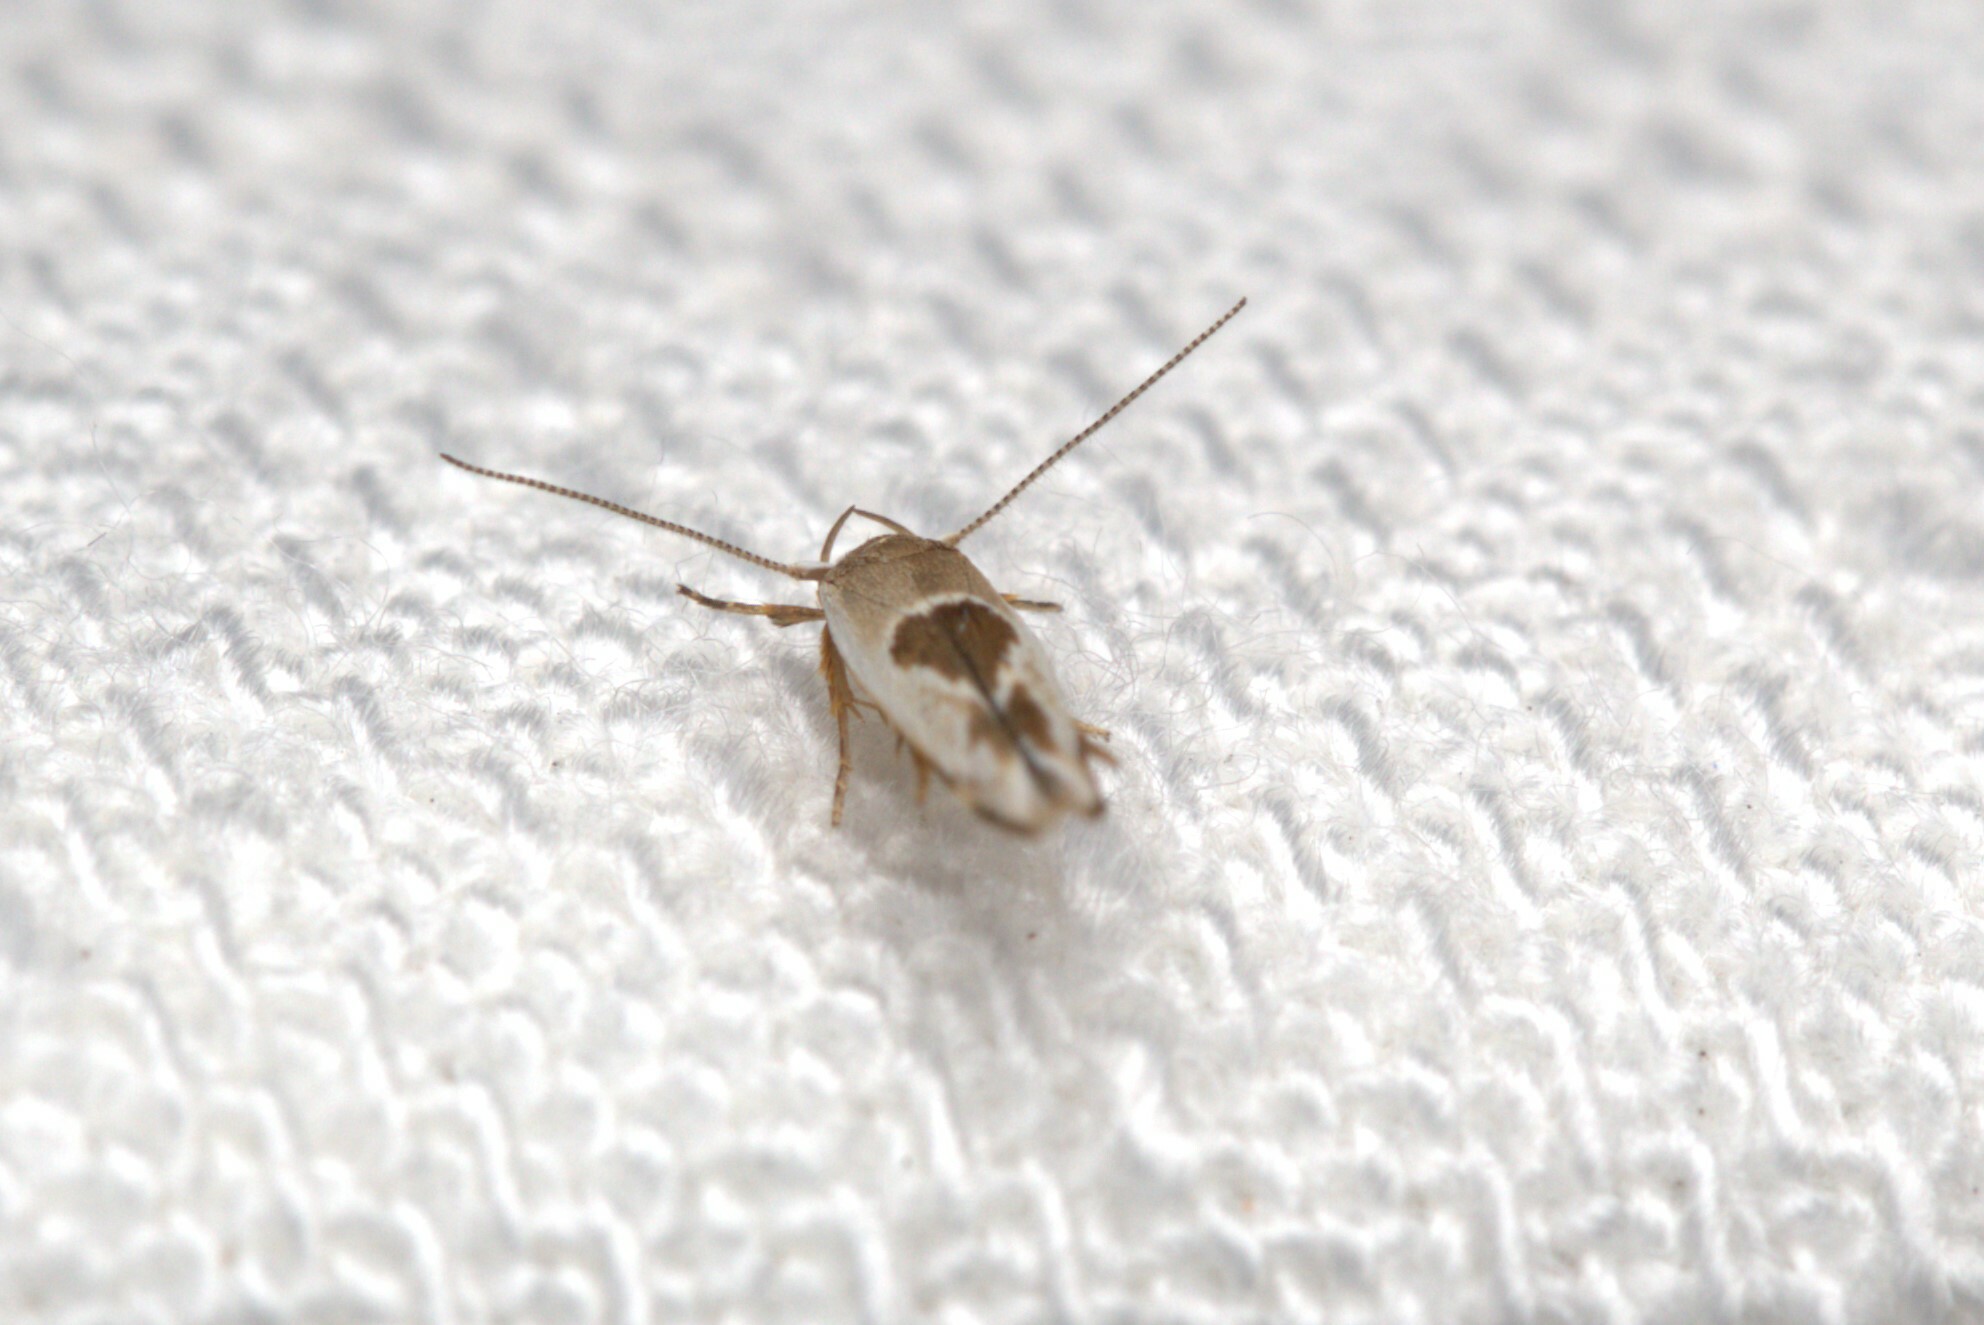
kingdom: Animalia
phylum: Arthropoda
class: Insecta
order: Lepidoptera
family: Stathmopodidae
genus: Stathmopoda
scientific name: Stathmopoda megathyma
